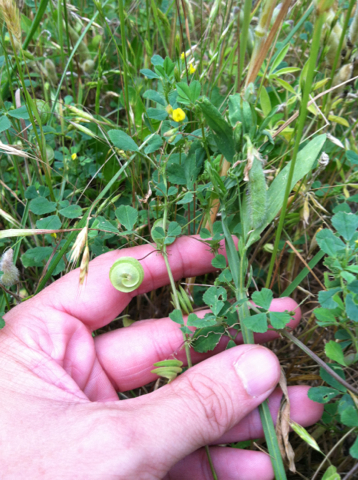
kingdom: Plantae
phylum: Tracheophyta
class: Magnoliopsida
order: Fabales
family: Fabaceae
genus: Medicago
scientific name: Medicago orbicularis
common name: Button medick
